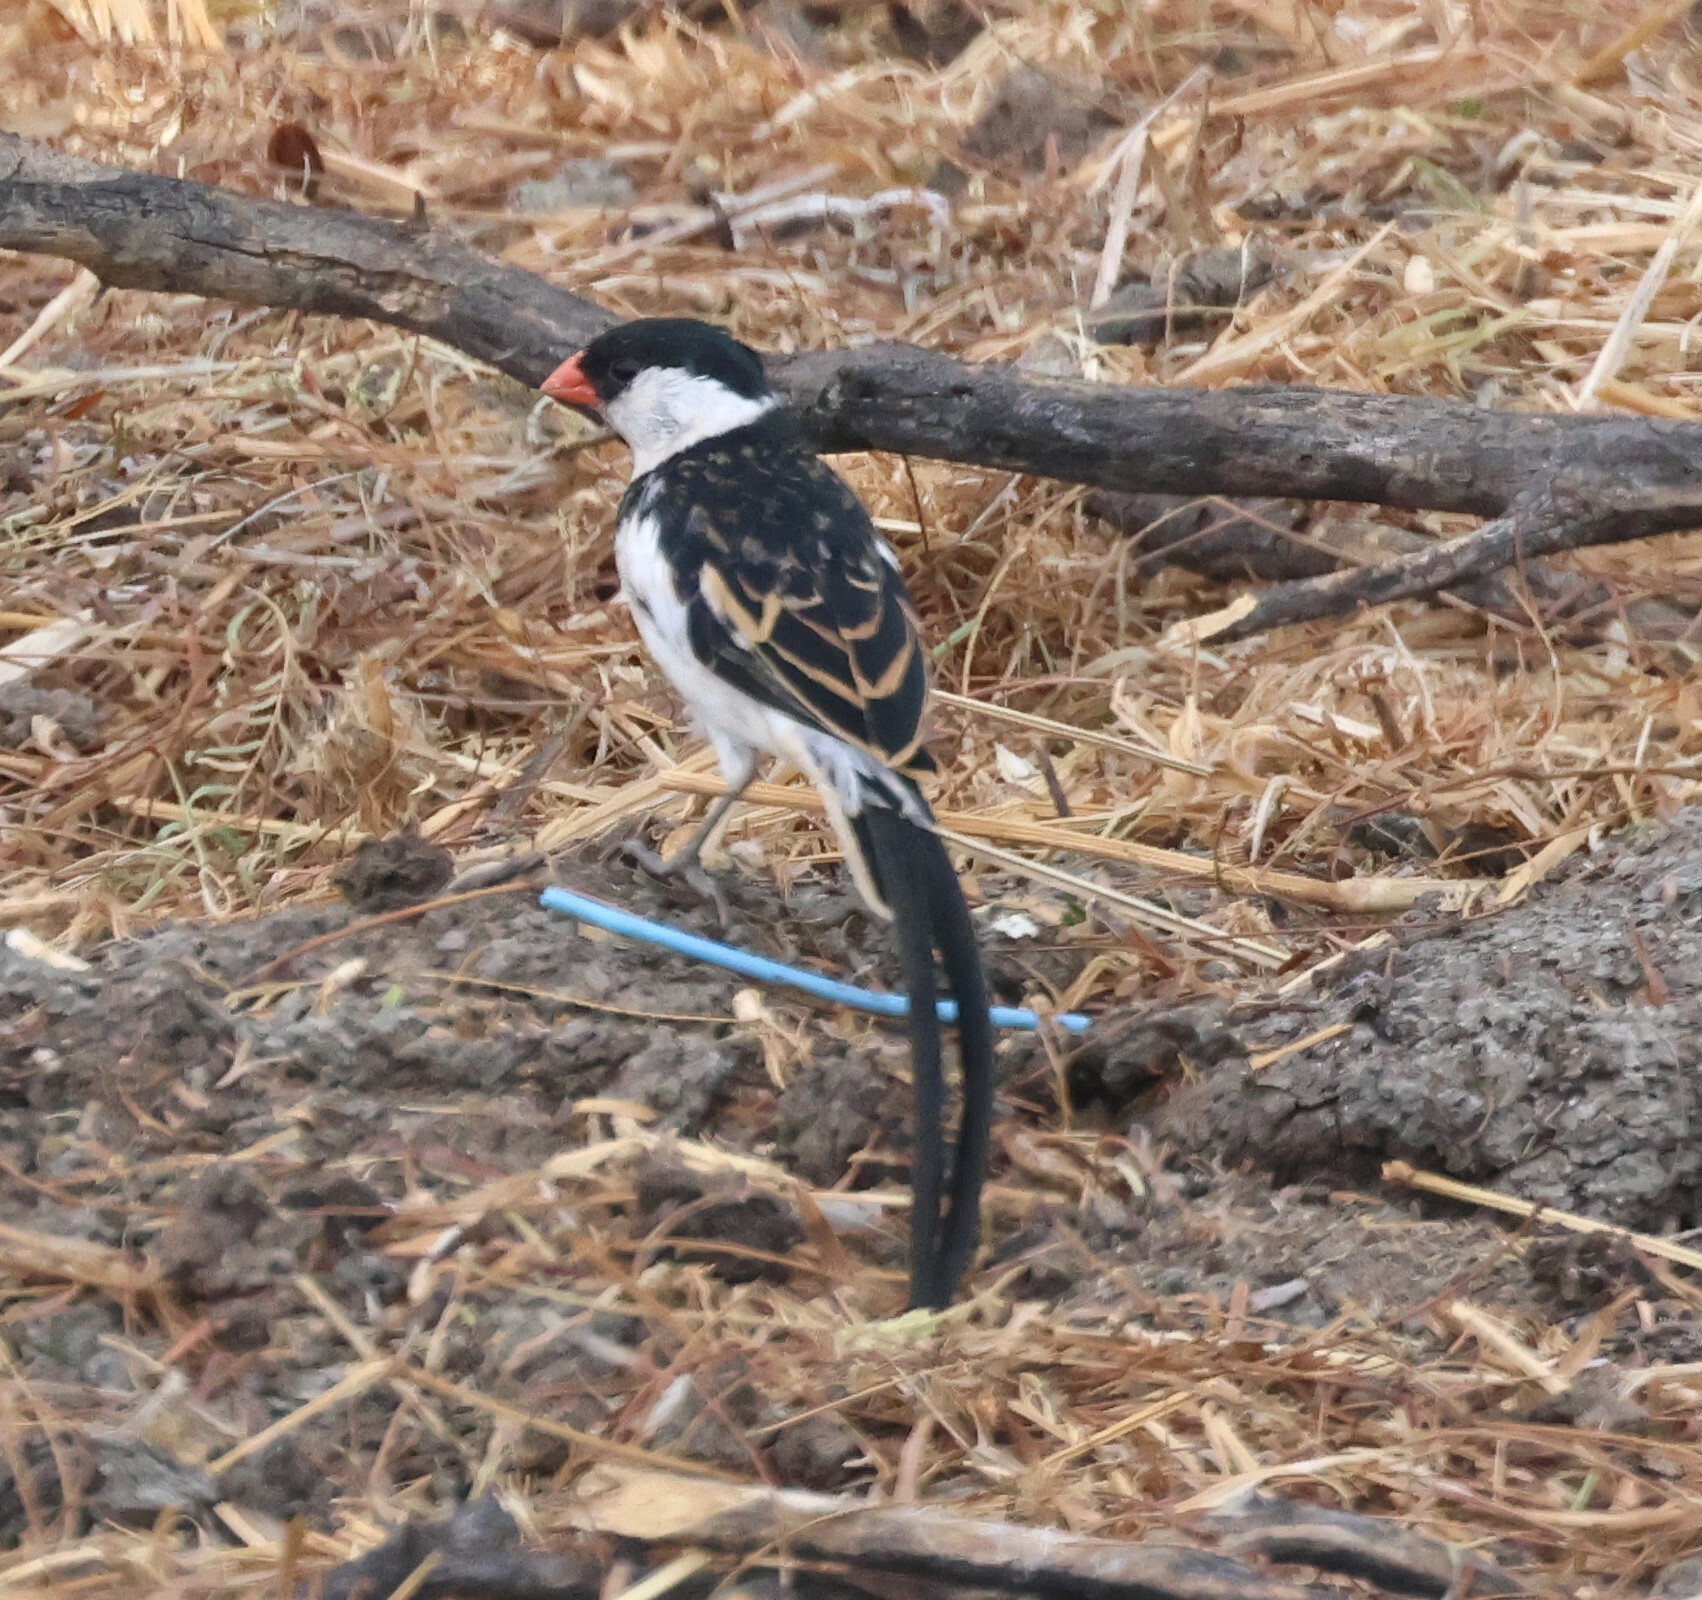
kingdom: Animalia
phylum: Chordata
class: Aves
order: Passeriformes
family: Viduidae
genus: Vidua
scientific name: Vidua macroura
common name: Pin-tailed whydah
